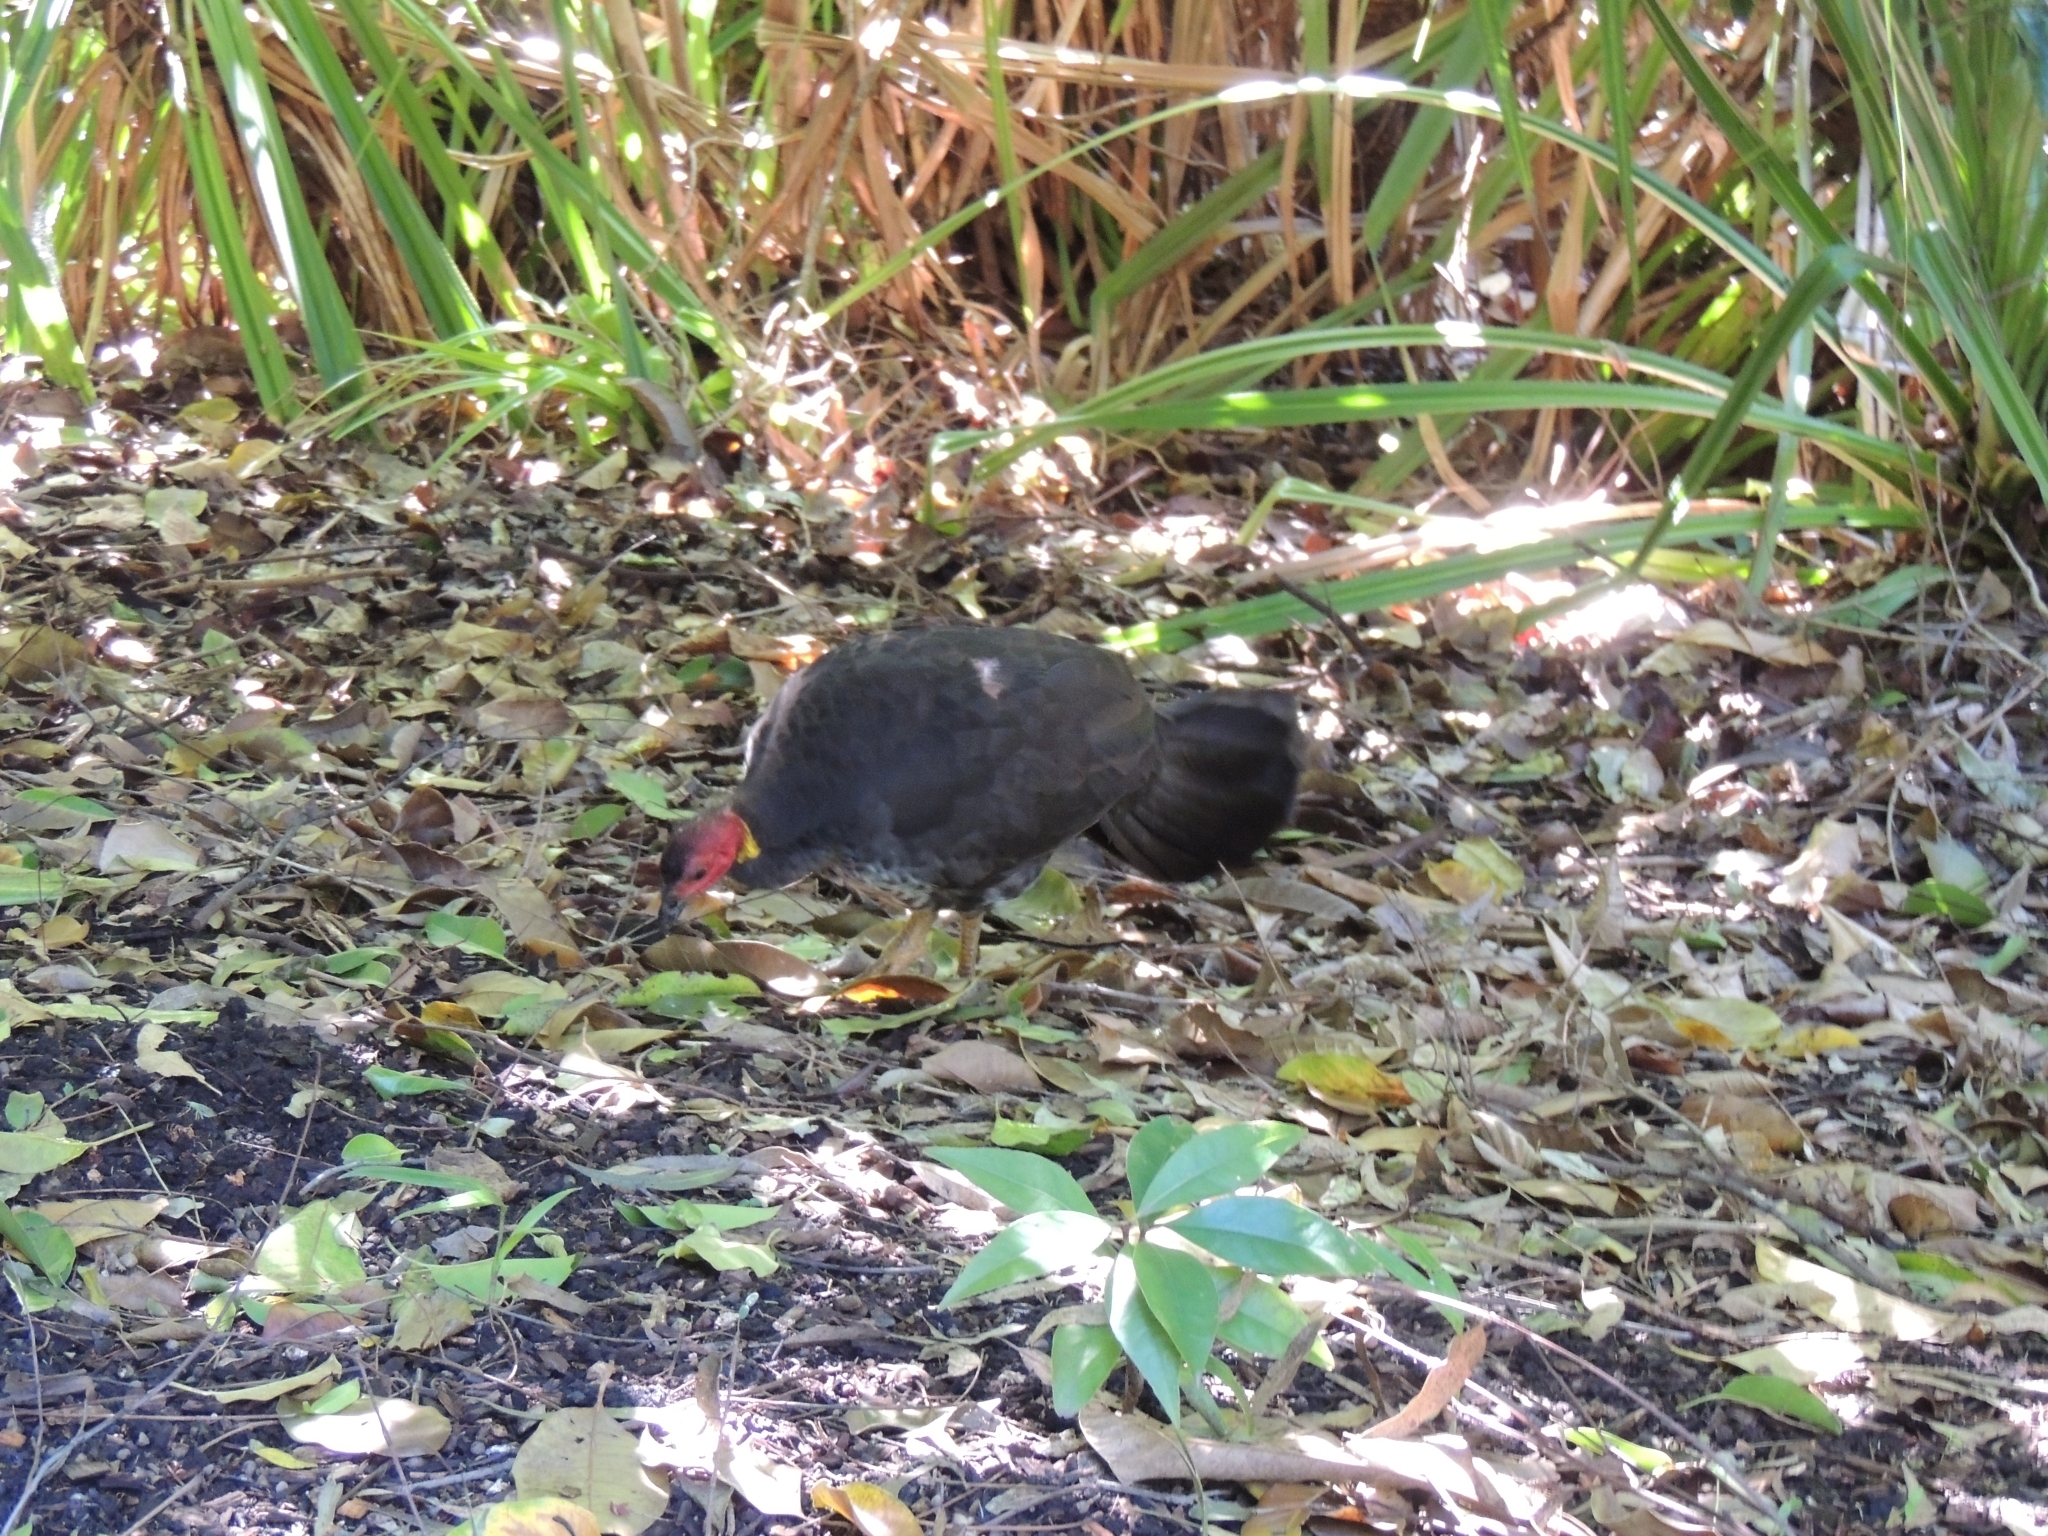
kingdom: Animalia
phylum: Chordata
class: Aves
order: Galliformes
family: Megapodiidae
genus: Alectura
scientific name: Alectura lathami
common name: Australian brushturkey
